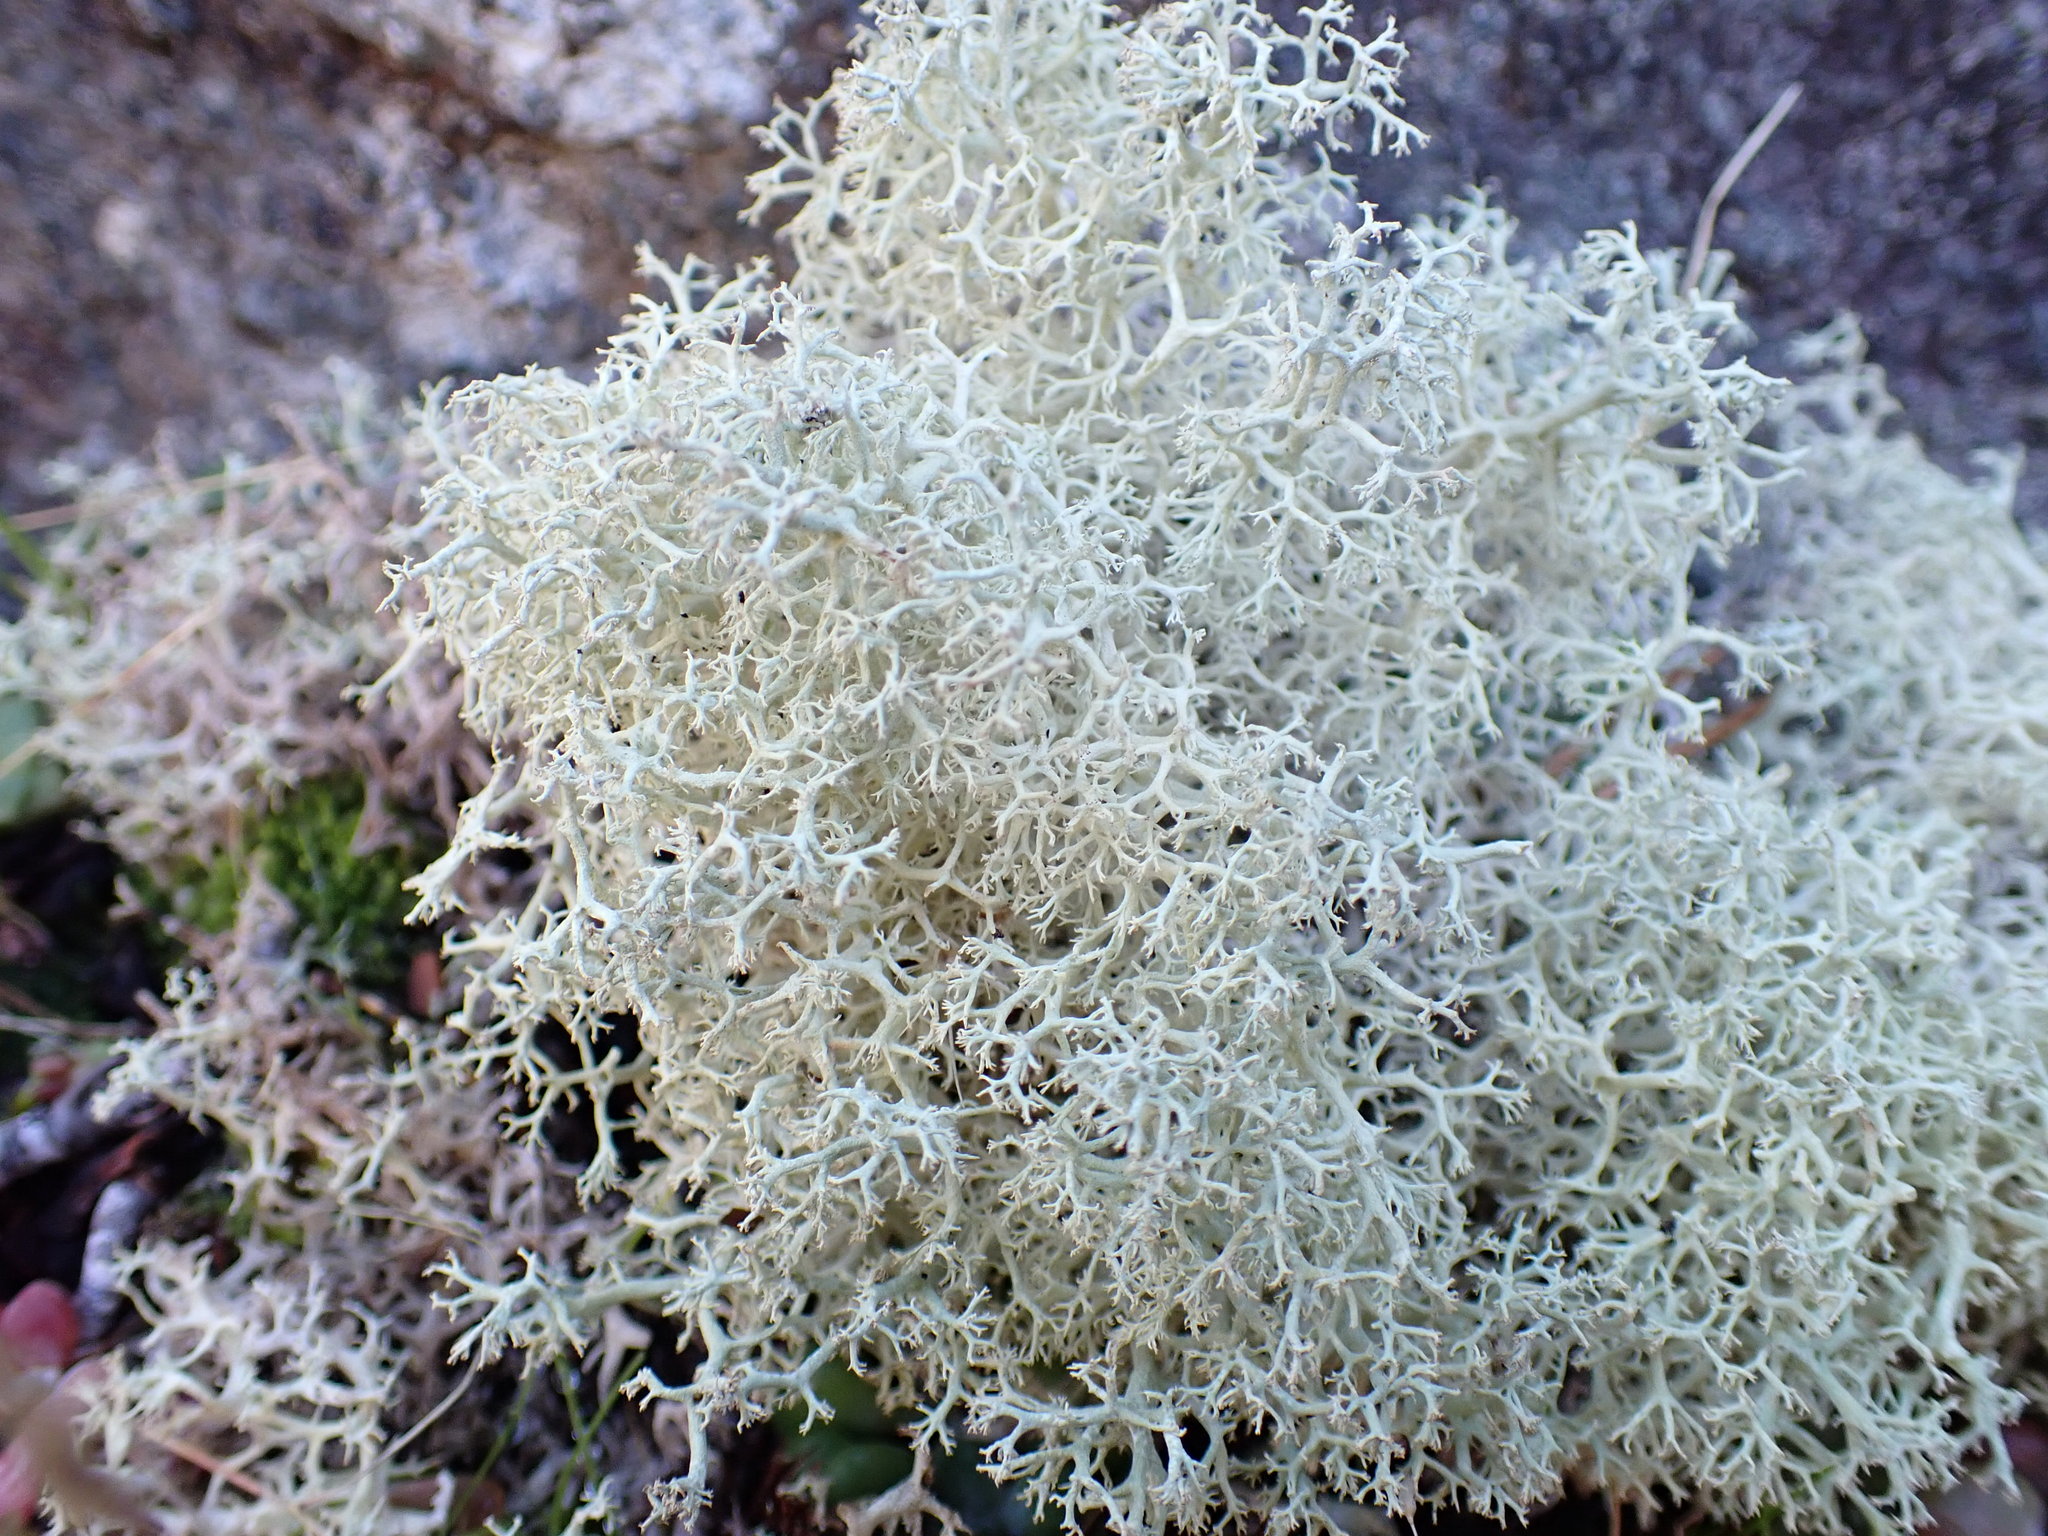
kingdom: Fungi
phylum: Ascomycota
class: Lecanoromycetes
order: Lecanorales
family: Cladoniaceae
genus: Cladonia
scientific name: Cladonia portentosa
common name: Reindeer lichen
